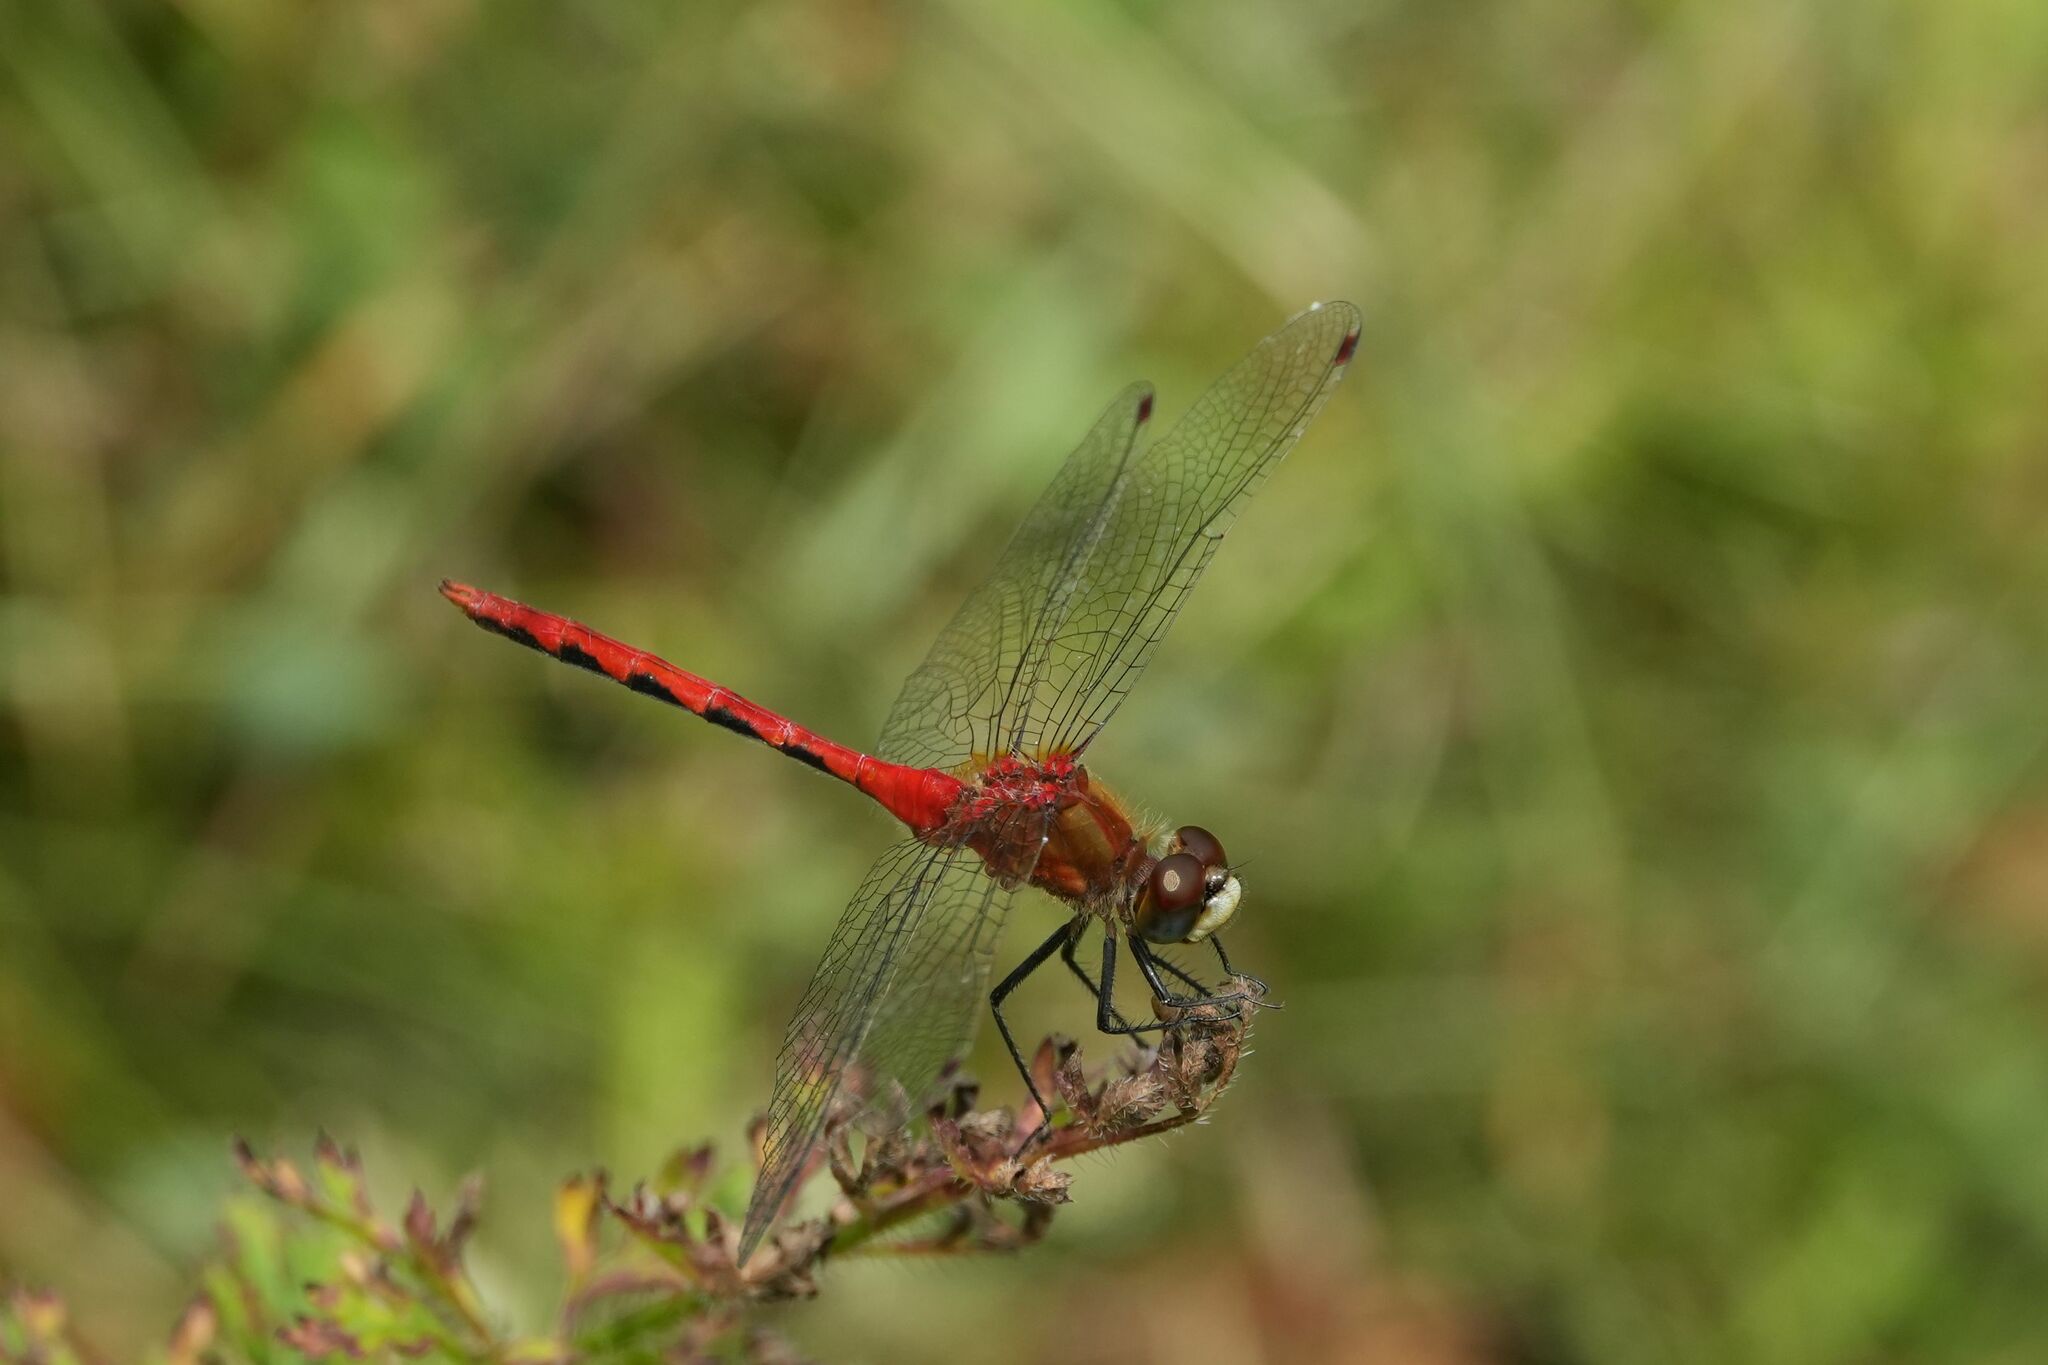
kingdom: Animalia
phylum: Arthropoda
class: Insecta
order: Odonata
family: Libellulidae
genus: Sympetrum
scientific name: Sympetrum obtrusum
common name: White-faced meadowhawk
